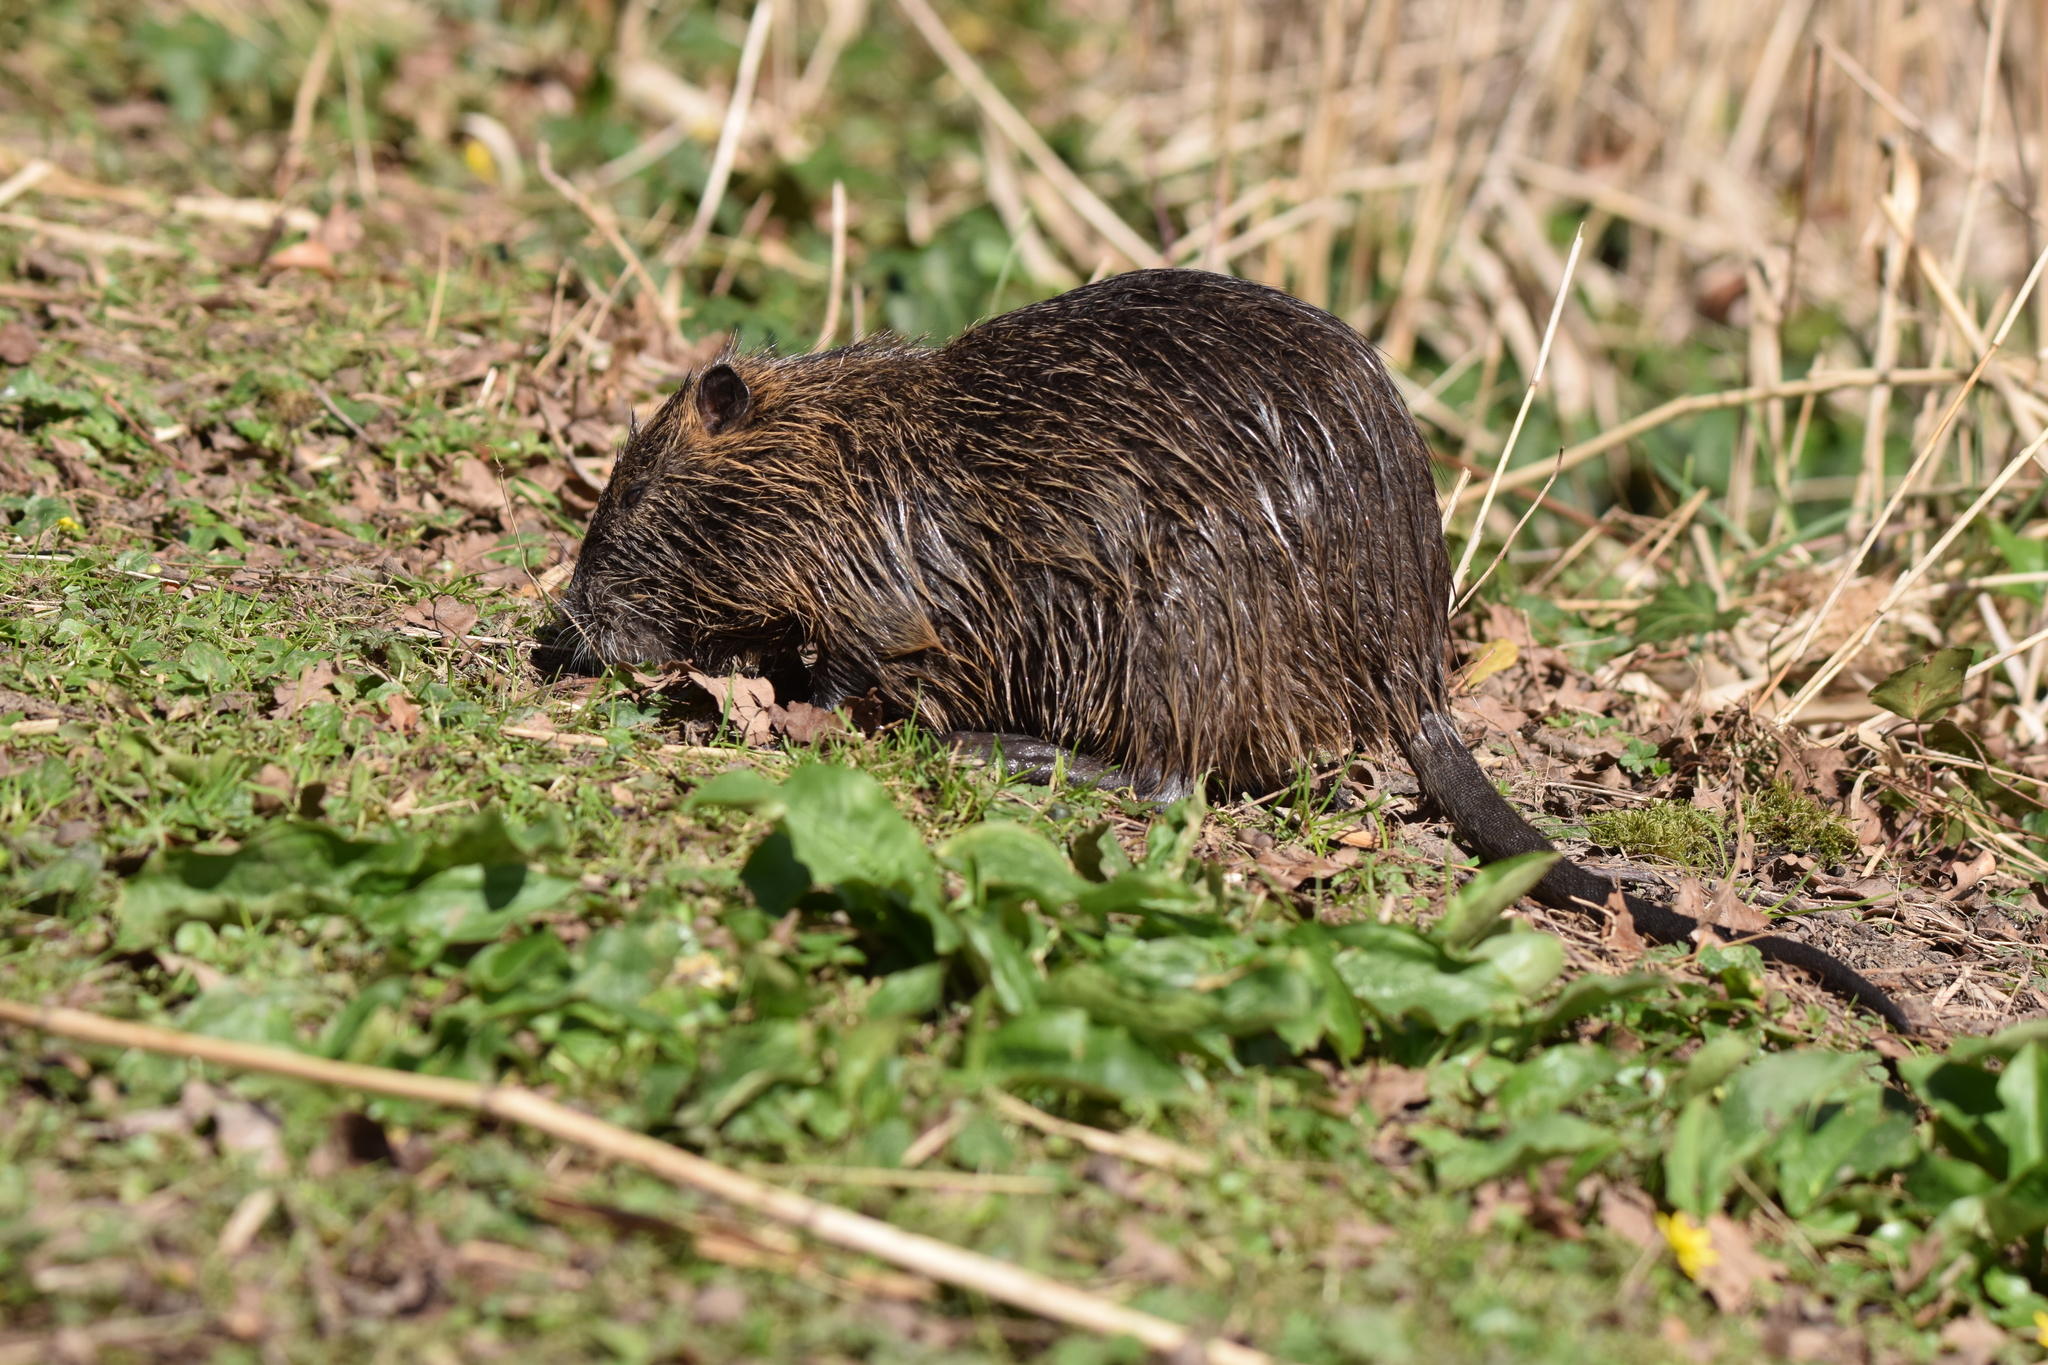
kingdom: Animalia
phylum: Chordata
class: Mammalia
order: Rodentia
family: Myocastoridae
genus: Myocastor
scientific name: Myocastor coypus
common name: Coypu
